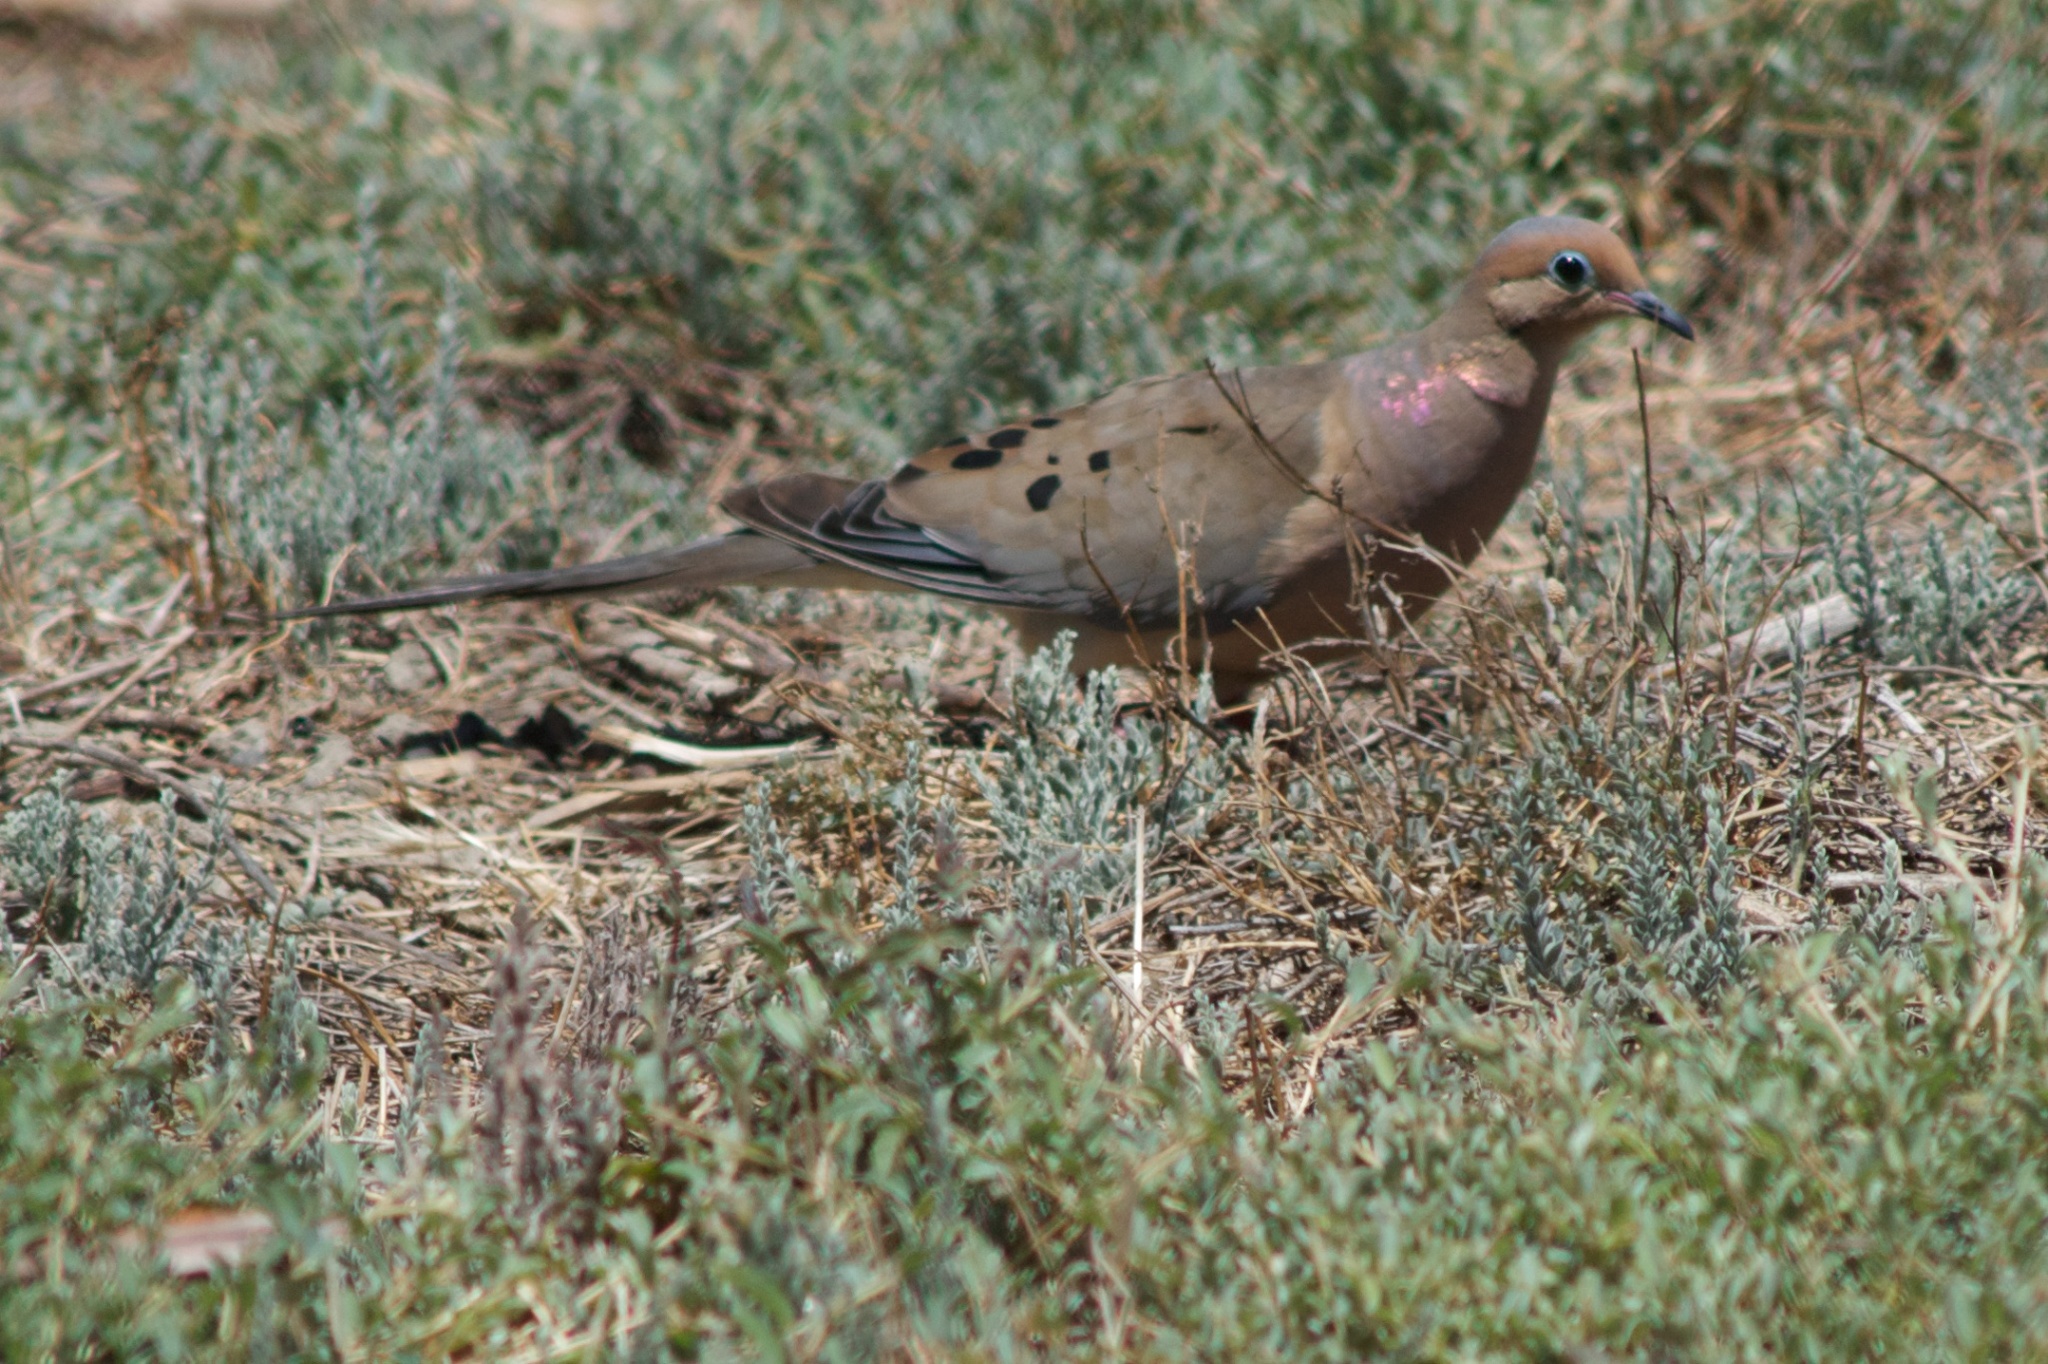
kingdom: Animalia
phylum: Chordata
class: Aves
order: Columbiformes
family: Columbidae
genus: Zenaida
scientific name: Zenaida macroura
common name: Mourning dove
